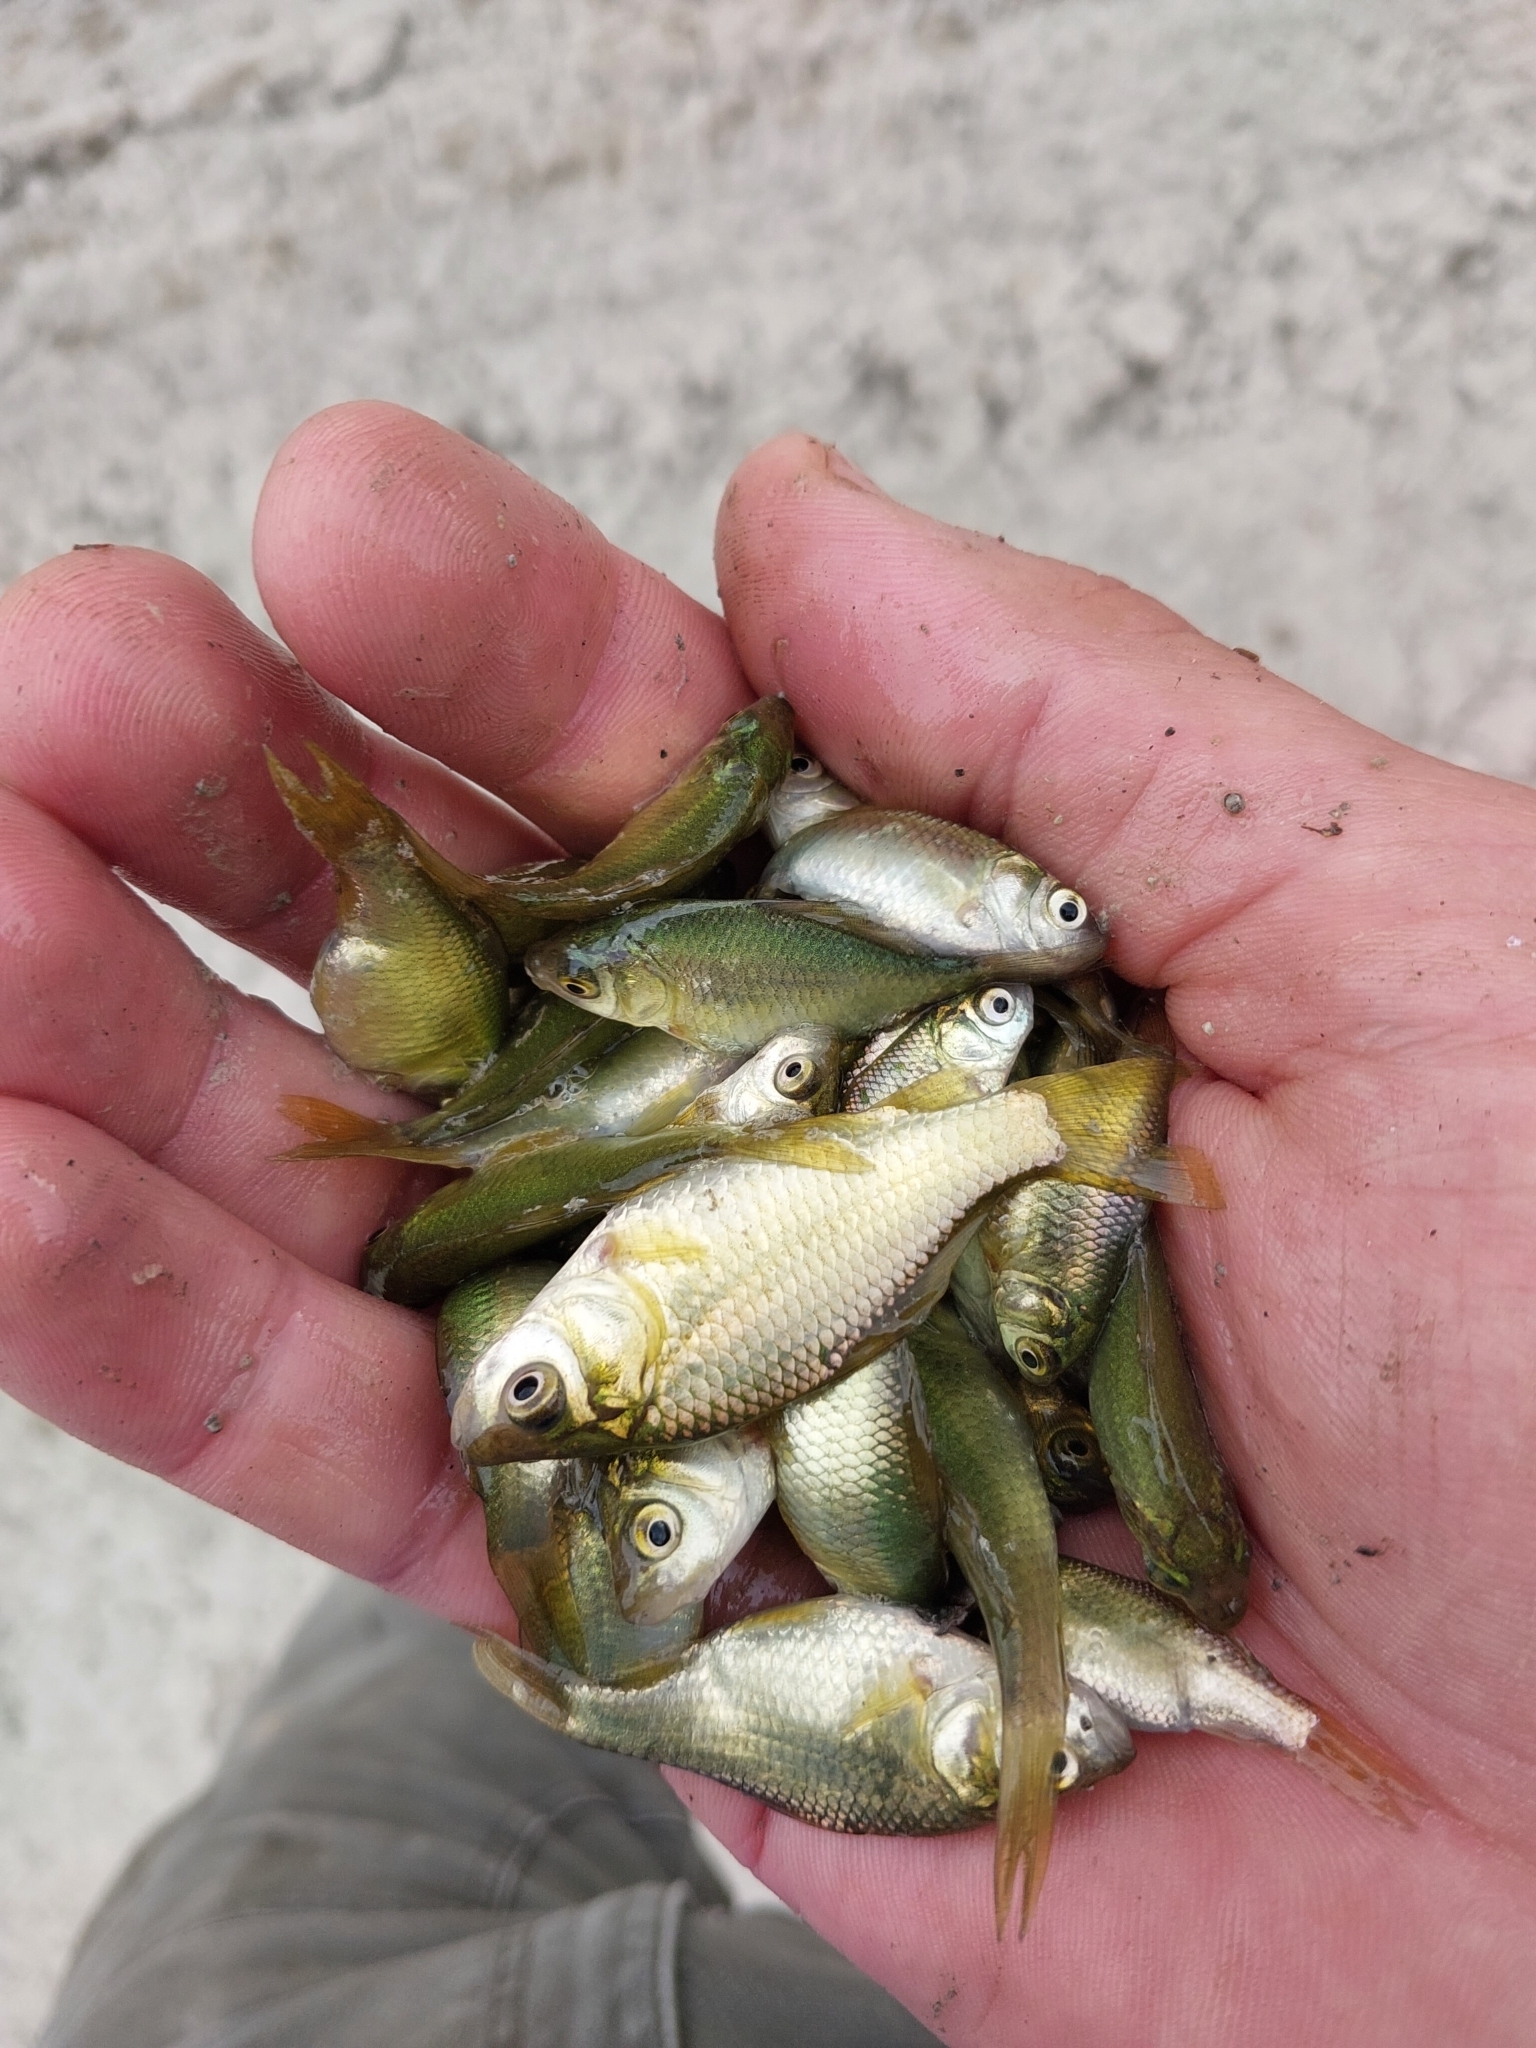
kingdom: Animalia
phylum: Chordata
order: Cypriniformes
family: Cyprinidae
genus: Carassius
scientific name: Carassius auratus
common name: Goldfish
